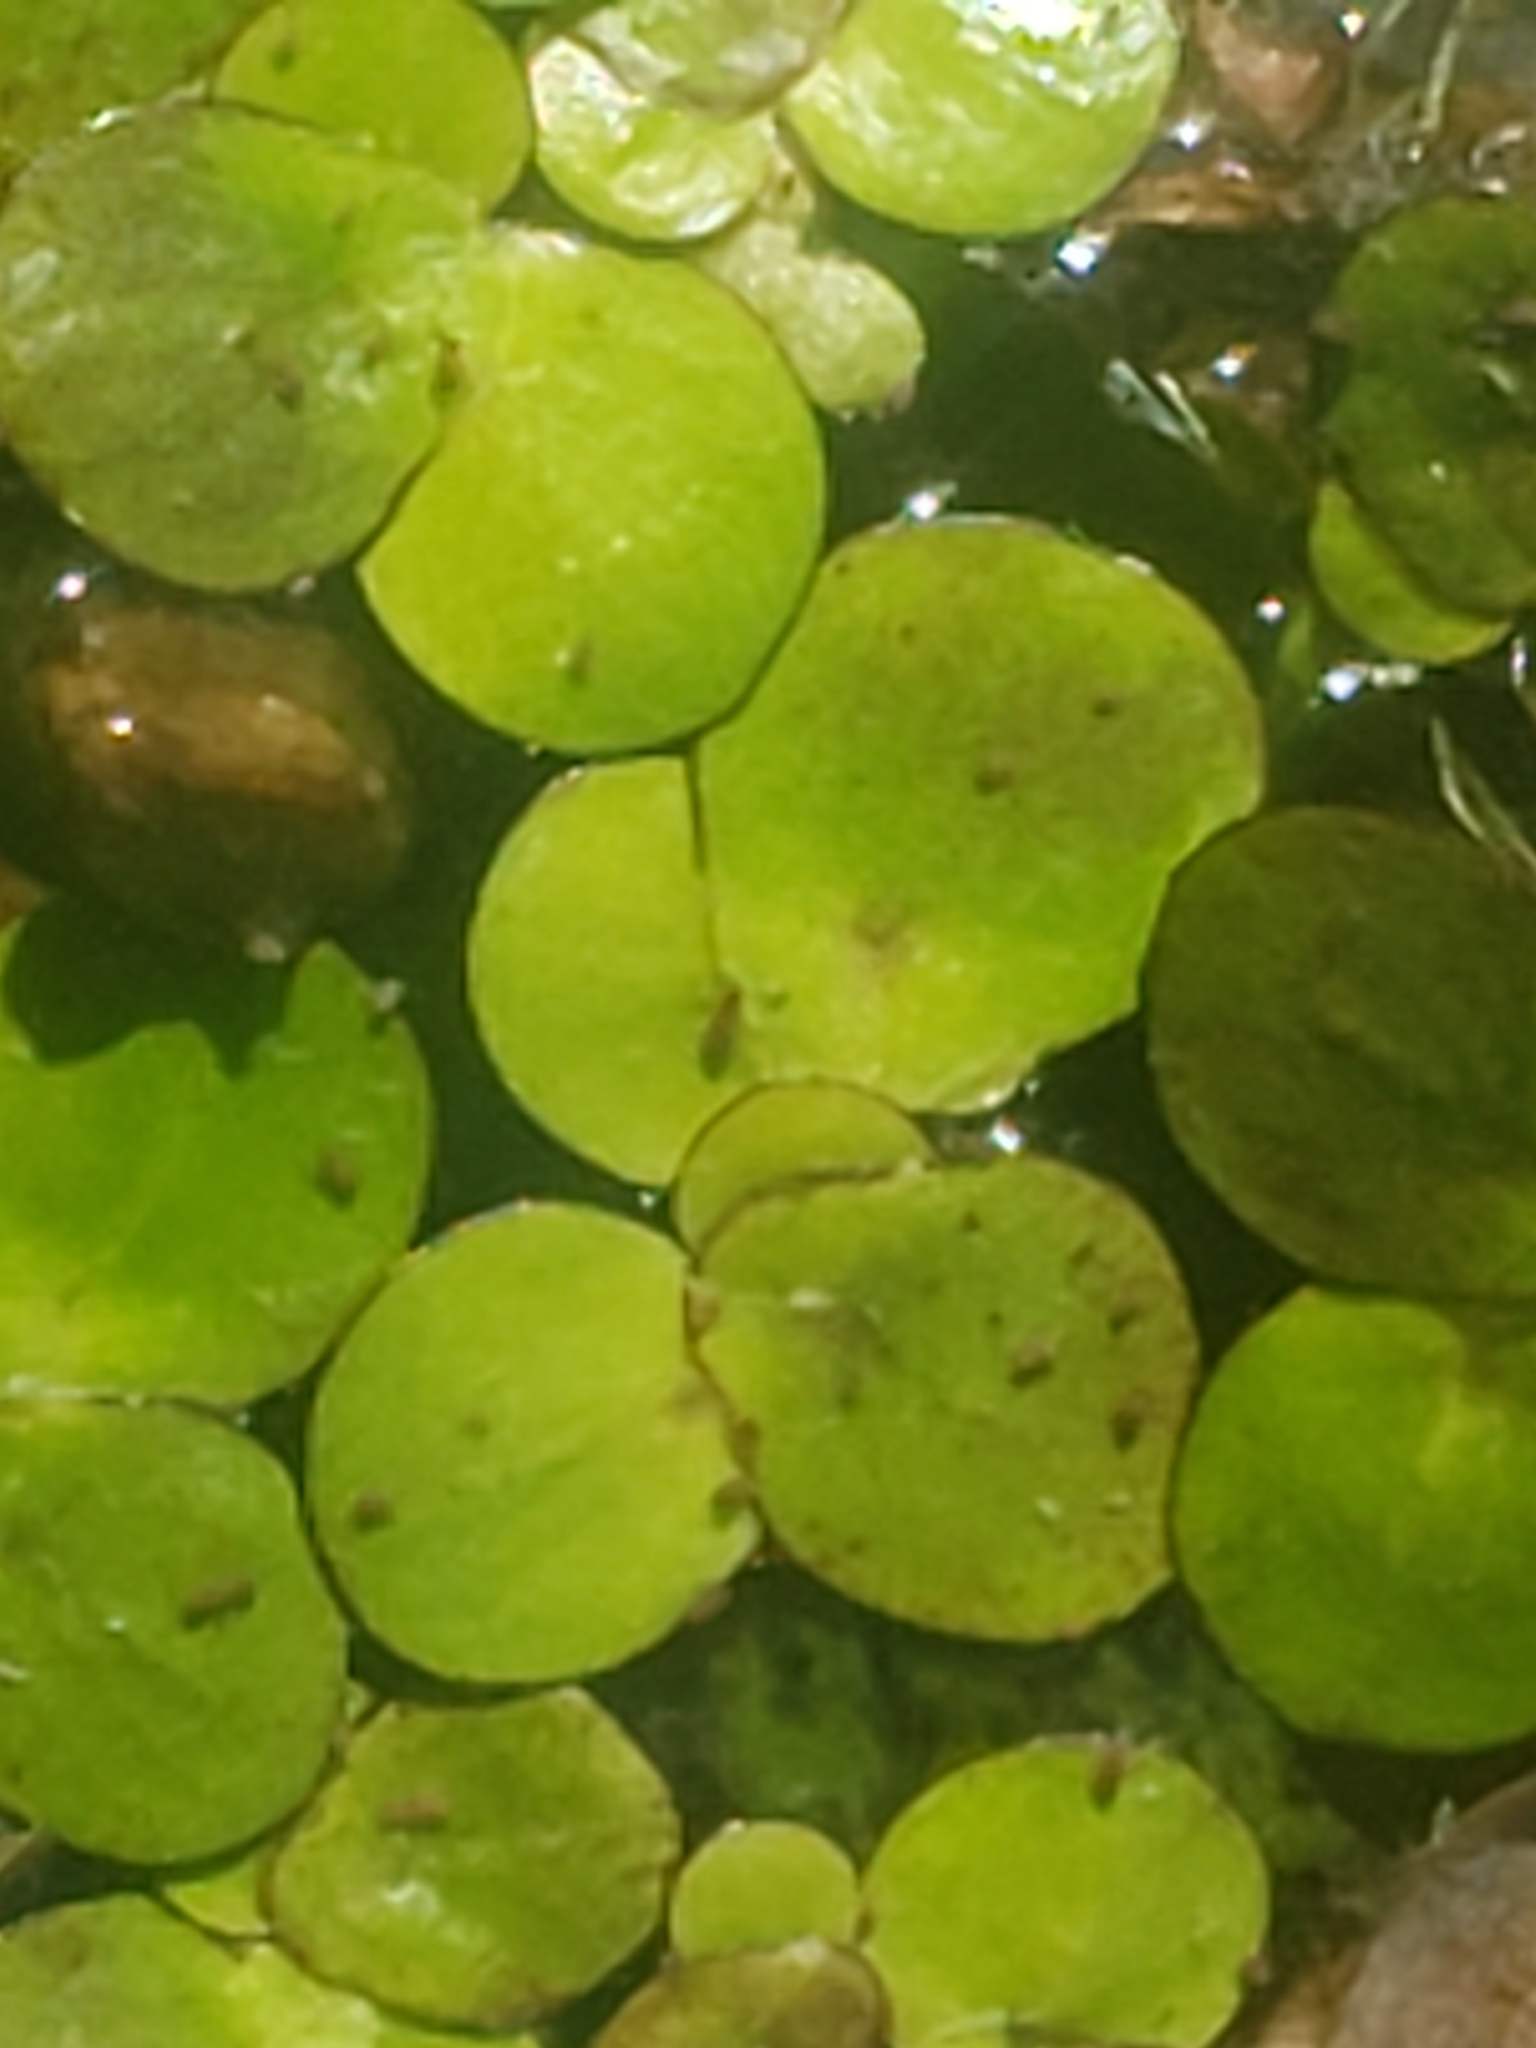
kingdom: Plantae
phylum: Tracheophyta
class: Liliopsida
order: Alismatales
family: Araceae
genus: Spirodela
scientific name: Spirodela polyrhiza
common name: Great duckweed
